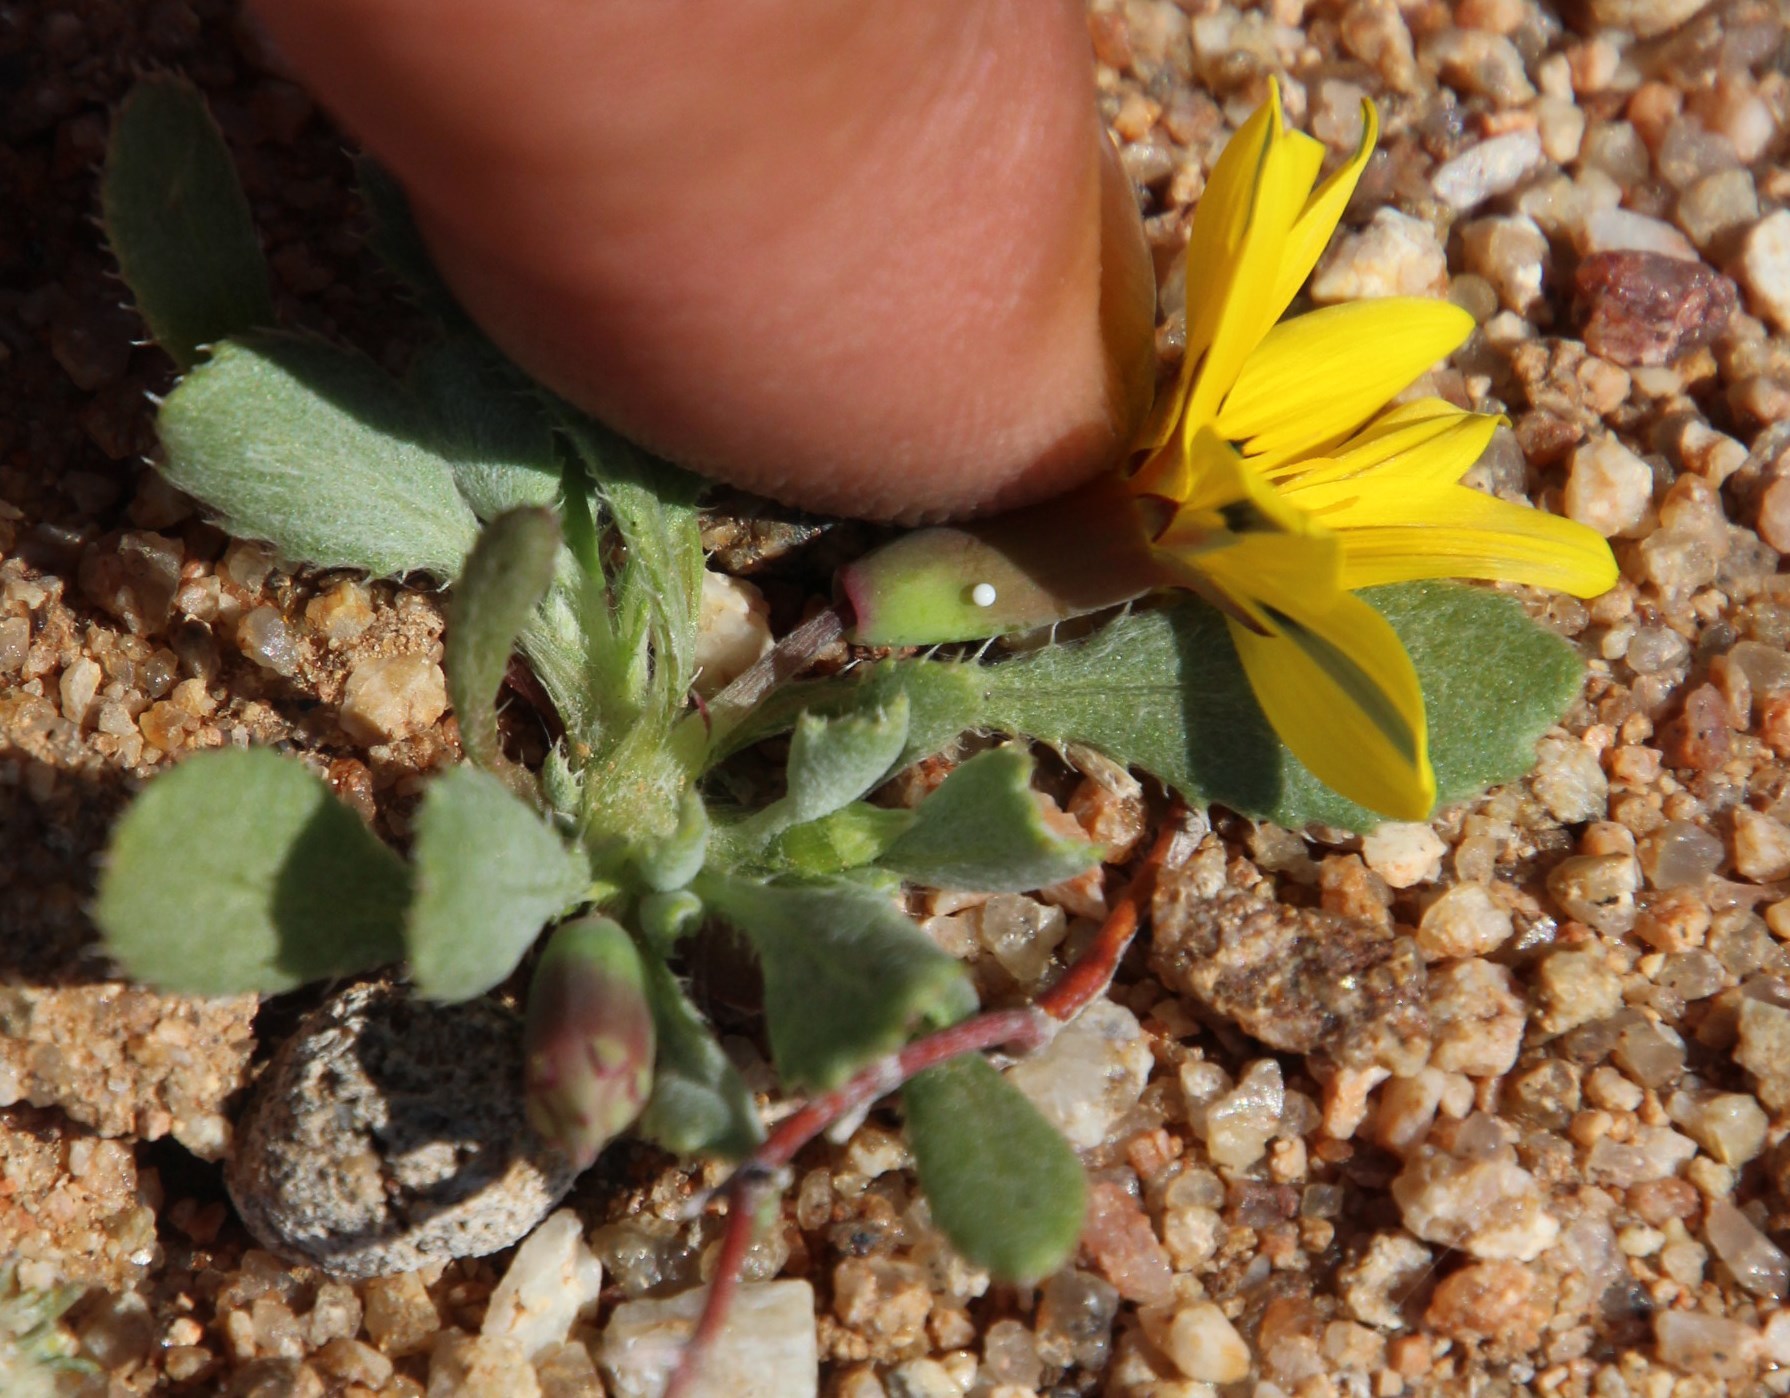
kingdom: Plantae
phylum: Tracheophyta
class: Magnoliopsida
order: Asterales
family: Asteraceae
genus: Gazania
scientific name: Gazania lichtensteinii
